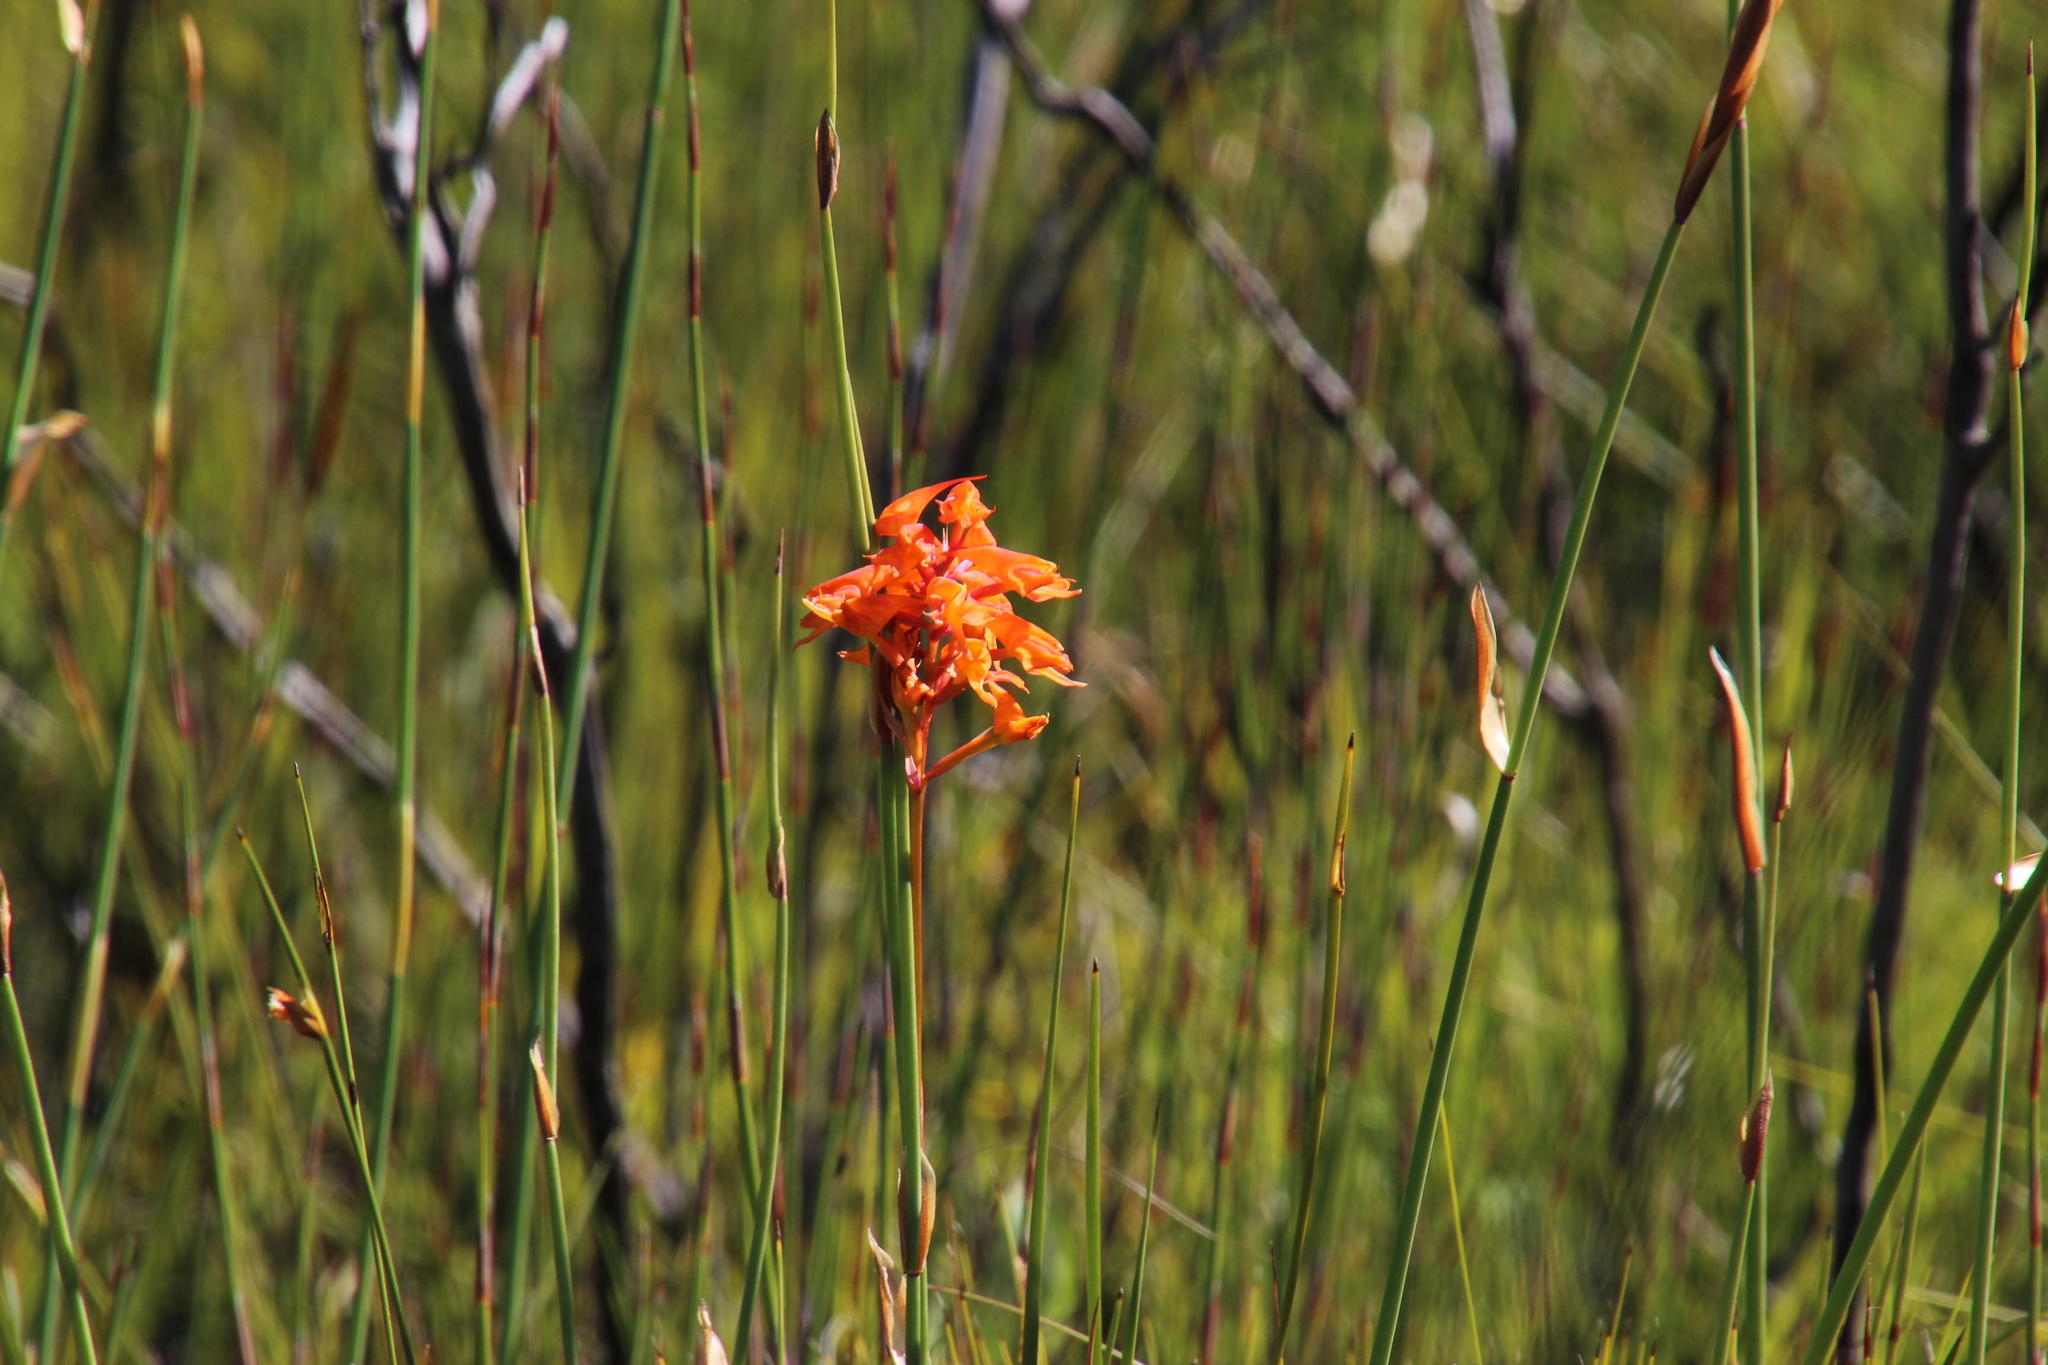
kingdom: Plantae
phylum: Tracheophyta
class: Liliopsida
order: Asparagales
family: Orchidaceae
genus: Disa
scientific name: Disa ferruginea
